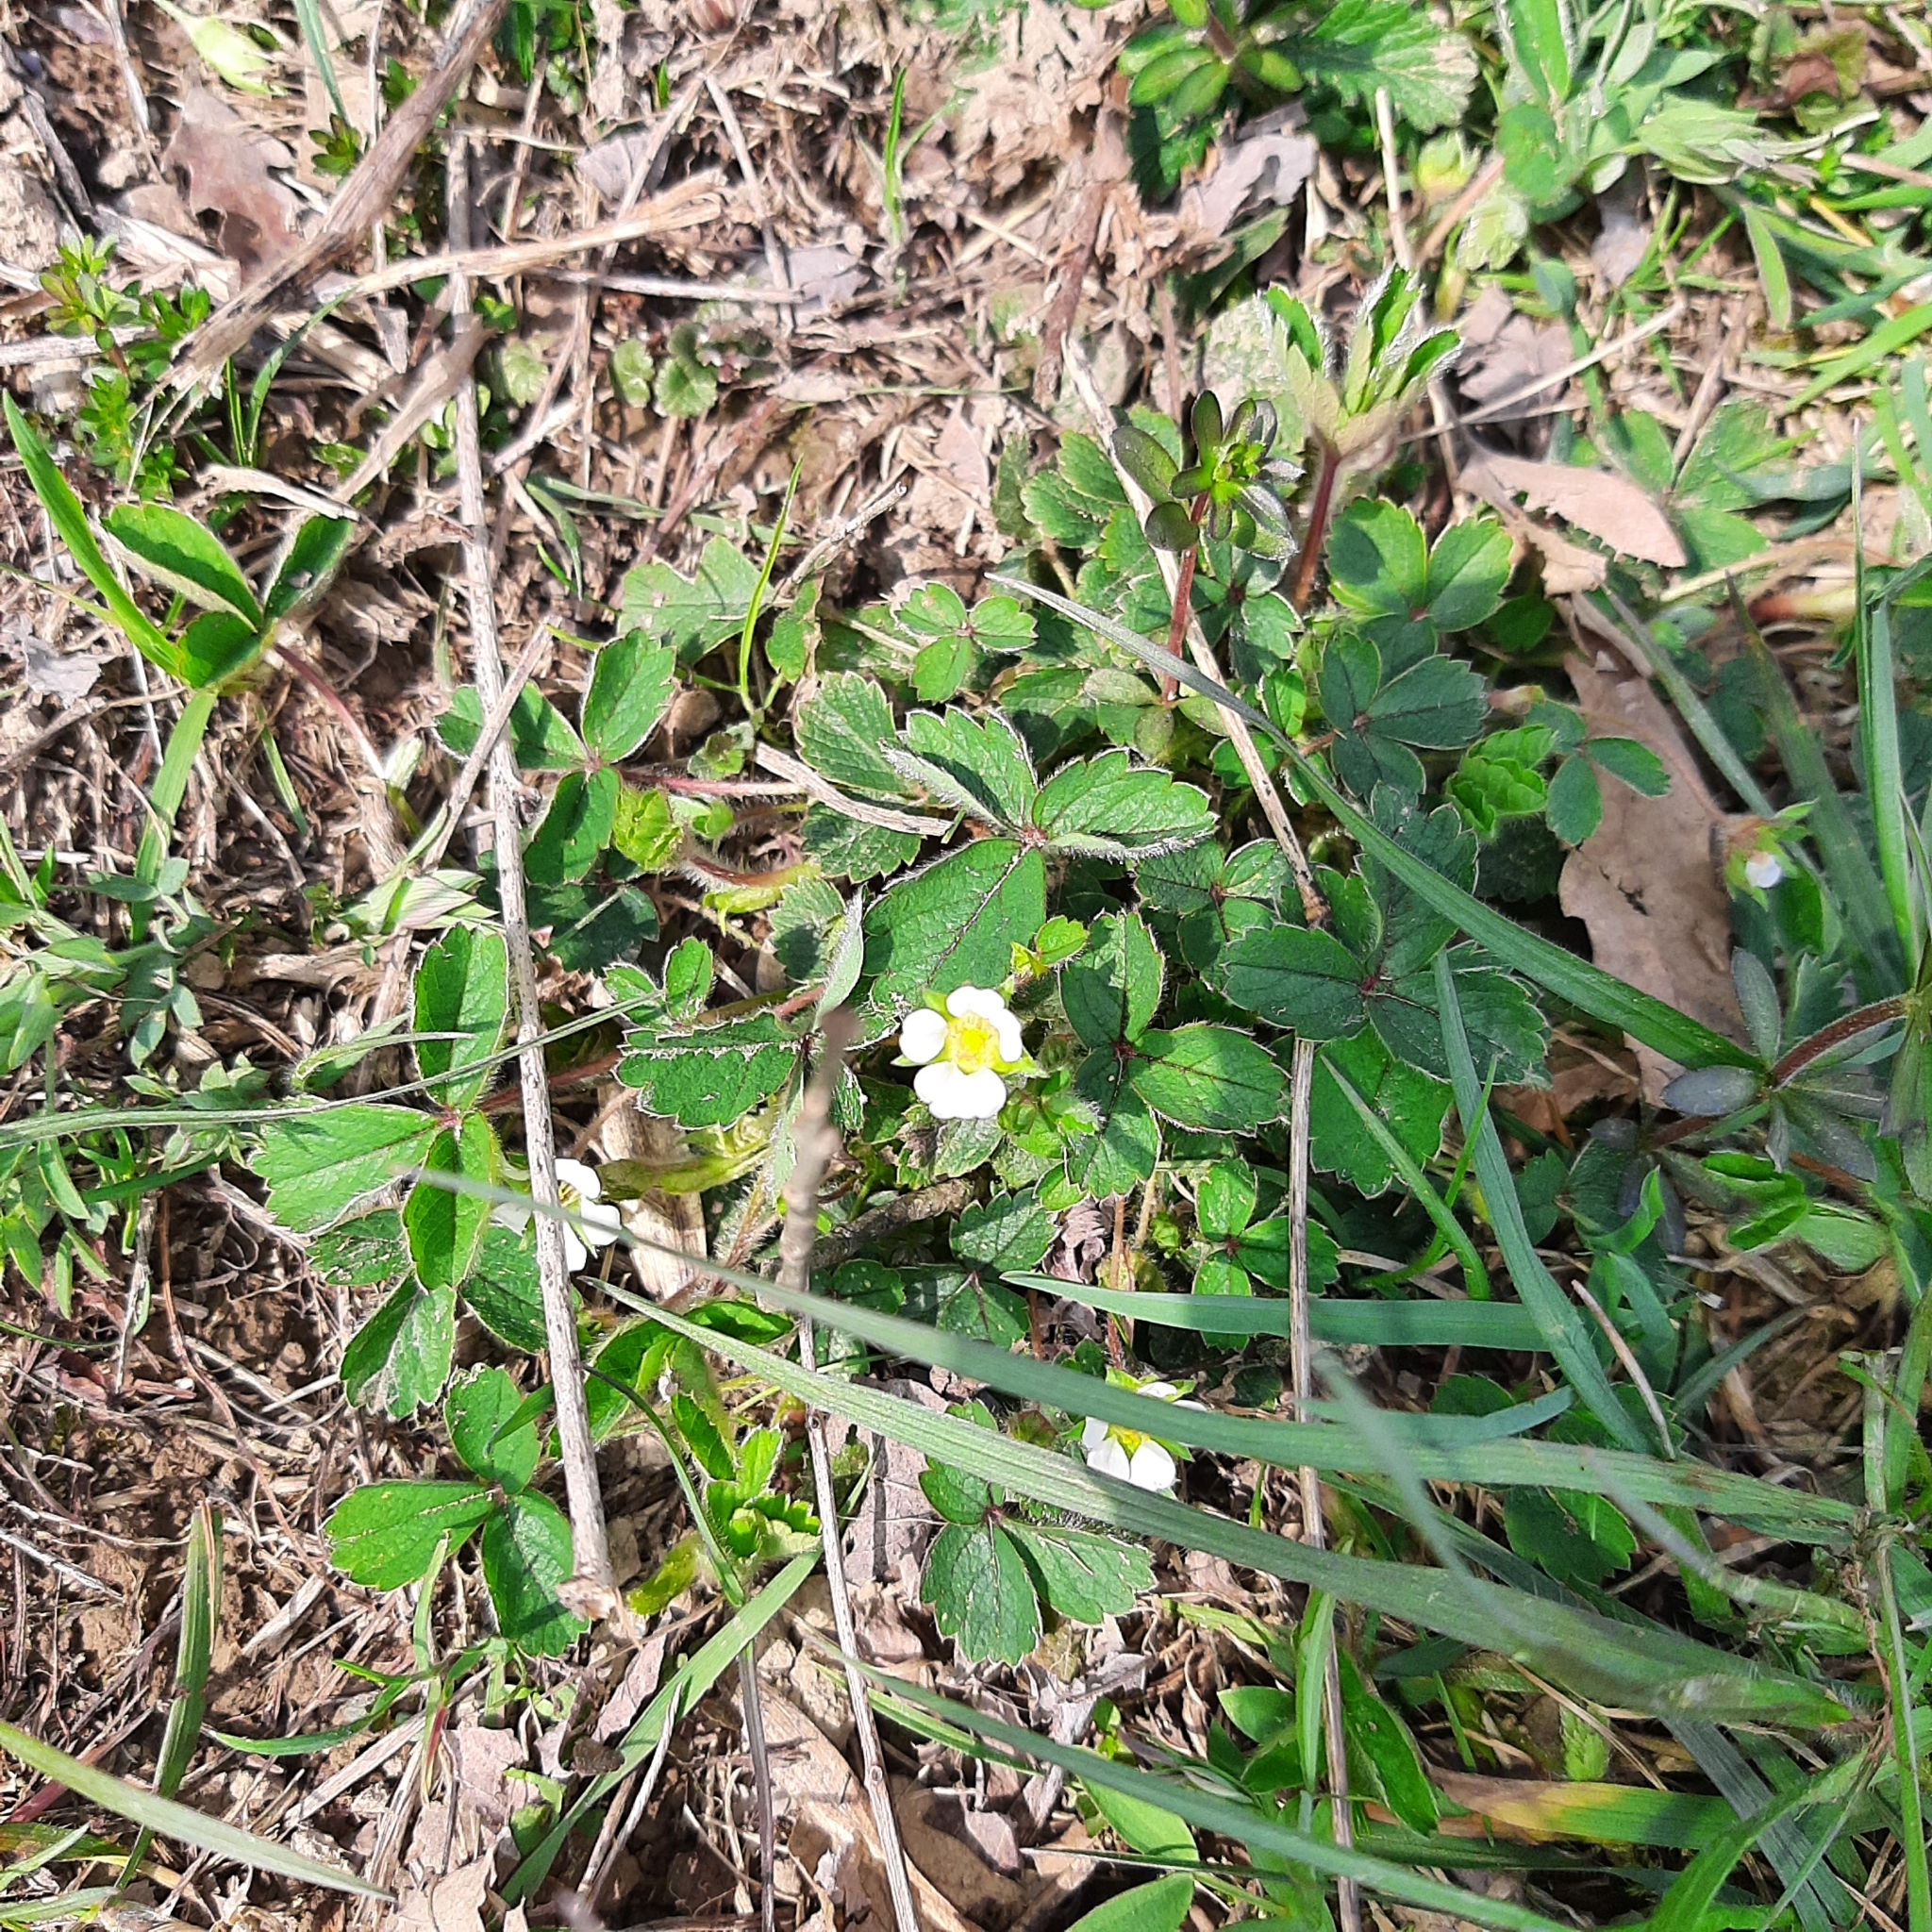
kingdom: Plantae
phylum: Tracheophyta
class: Magnoliopsida
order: Rosales
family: Rosaceae
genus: Potentilla
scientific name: Potentilla sterilis
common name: Barren strawberry
